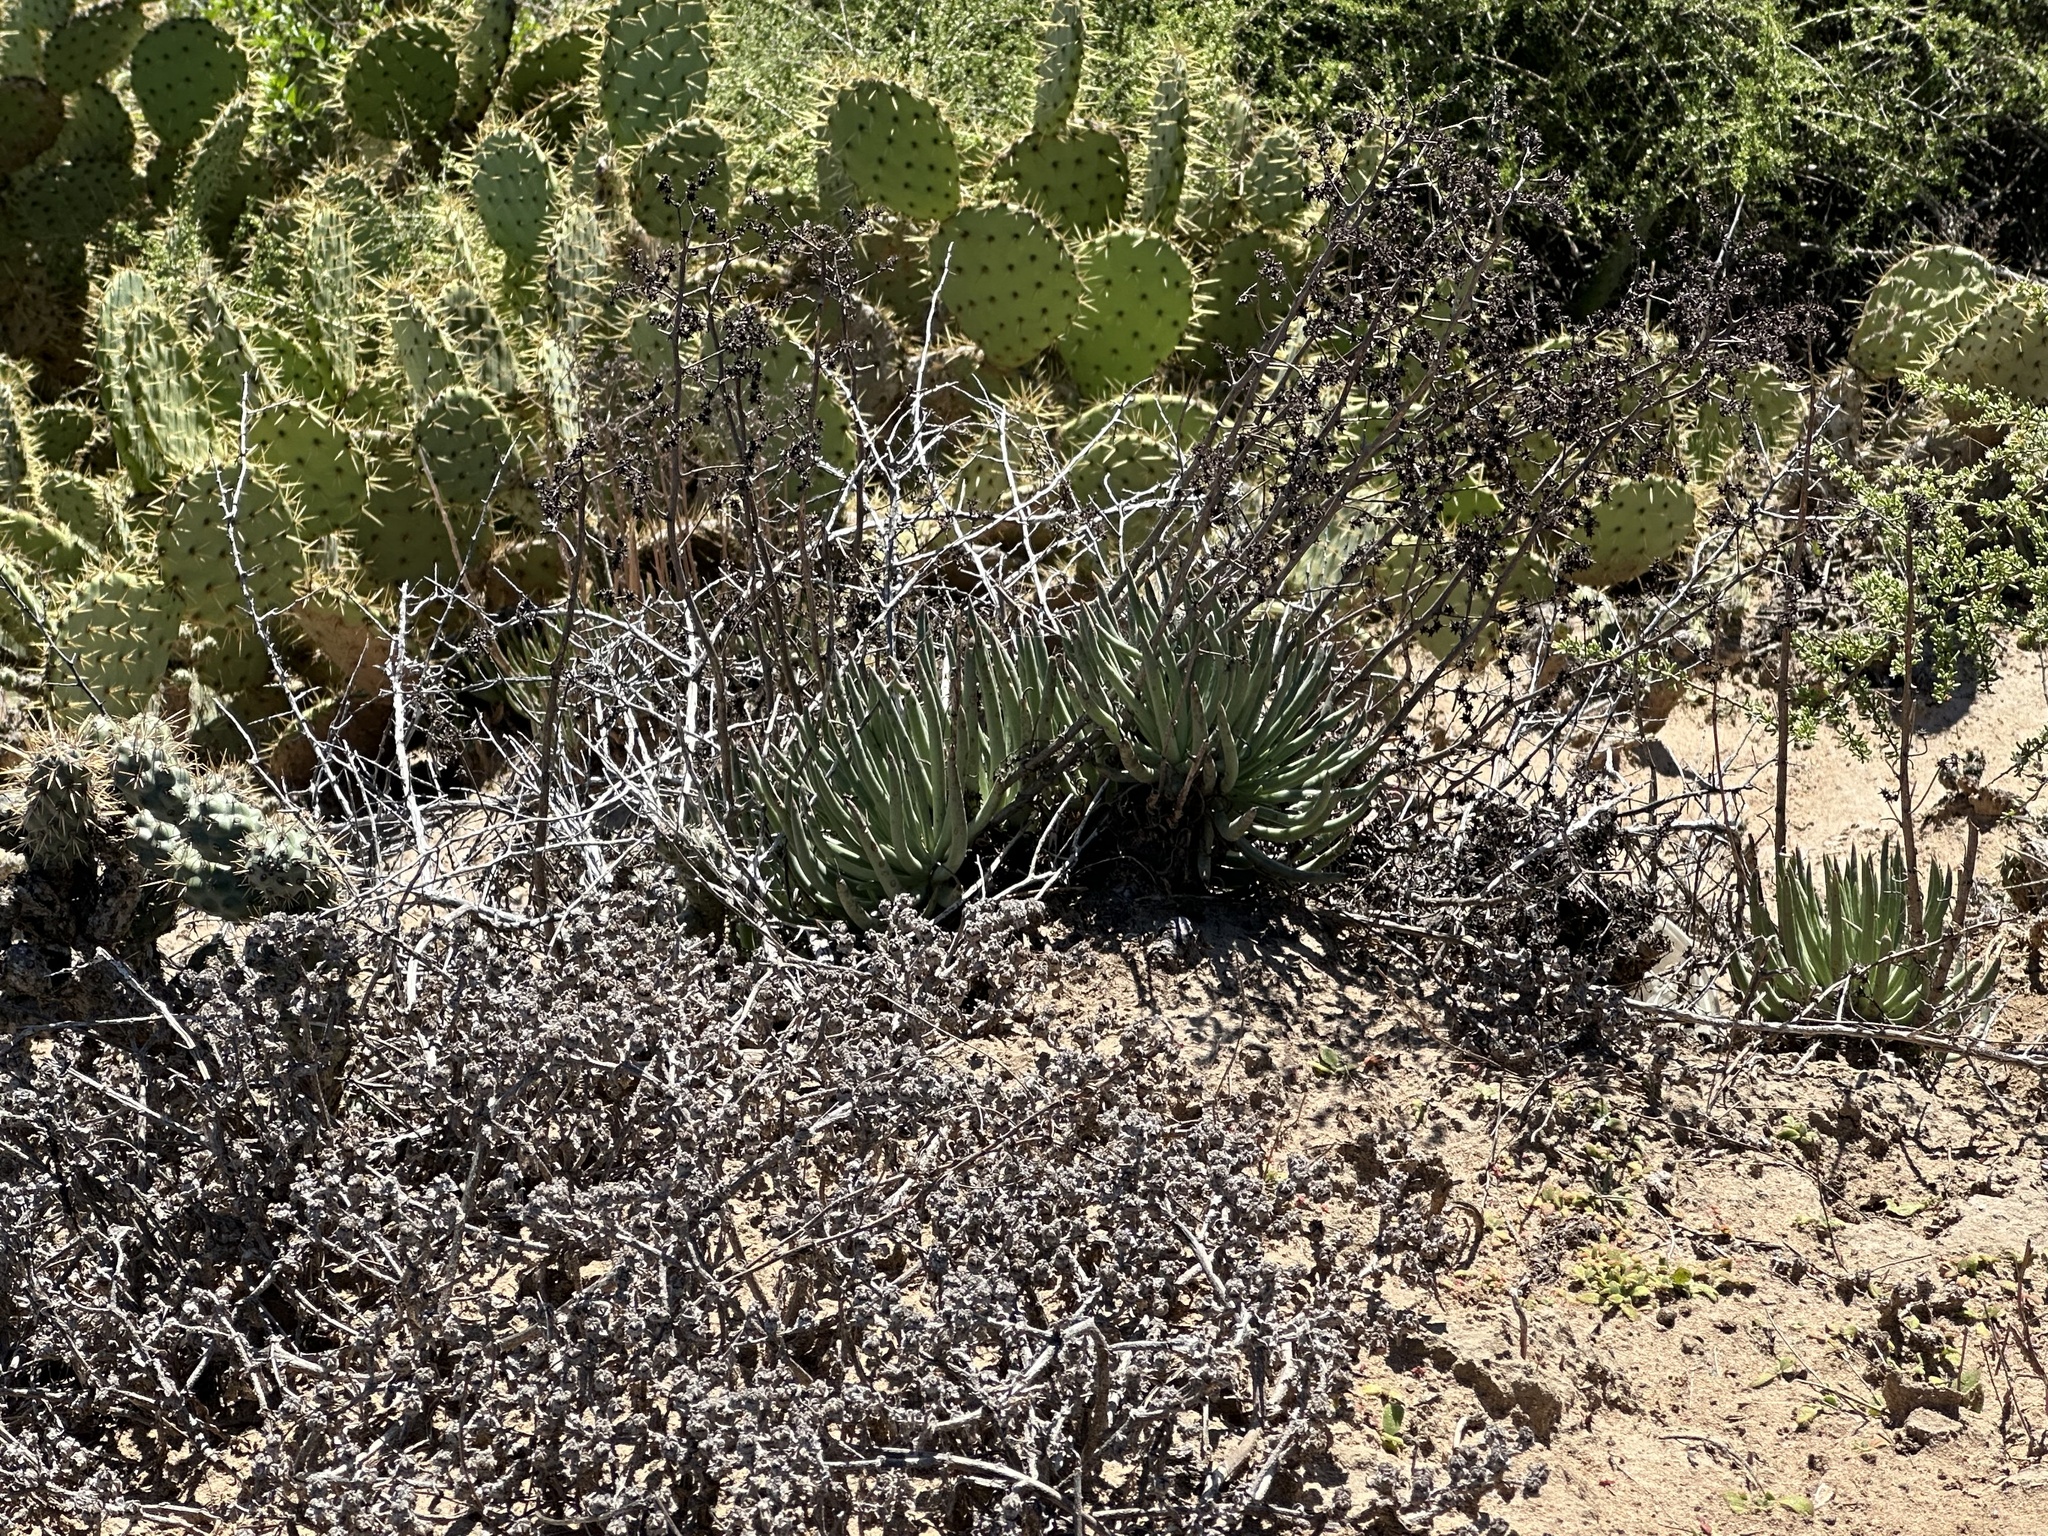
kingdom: Plantae
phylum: Tracheophyta
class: Magnoliopsida
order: Saxifragales
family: Crassulaceae
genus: Dudleya
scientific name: Dudleya edulis
